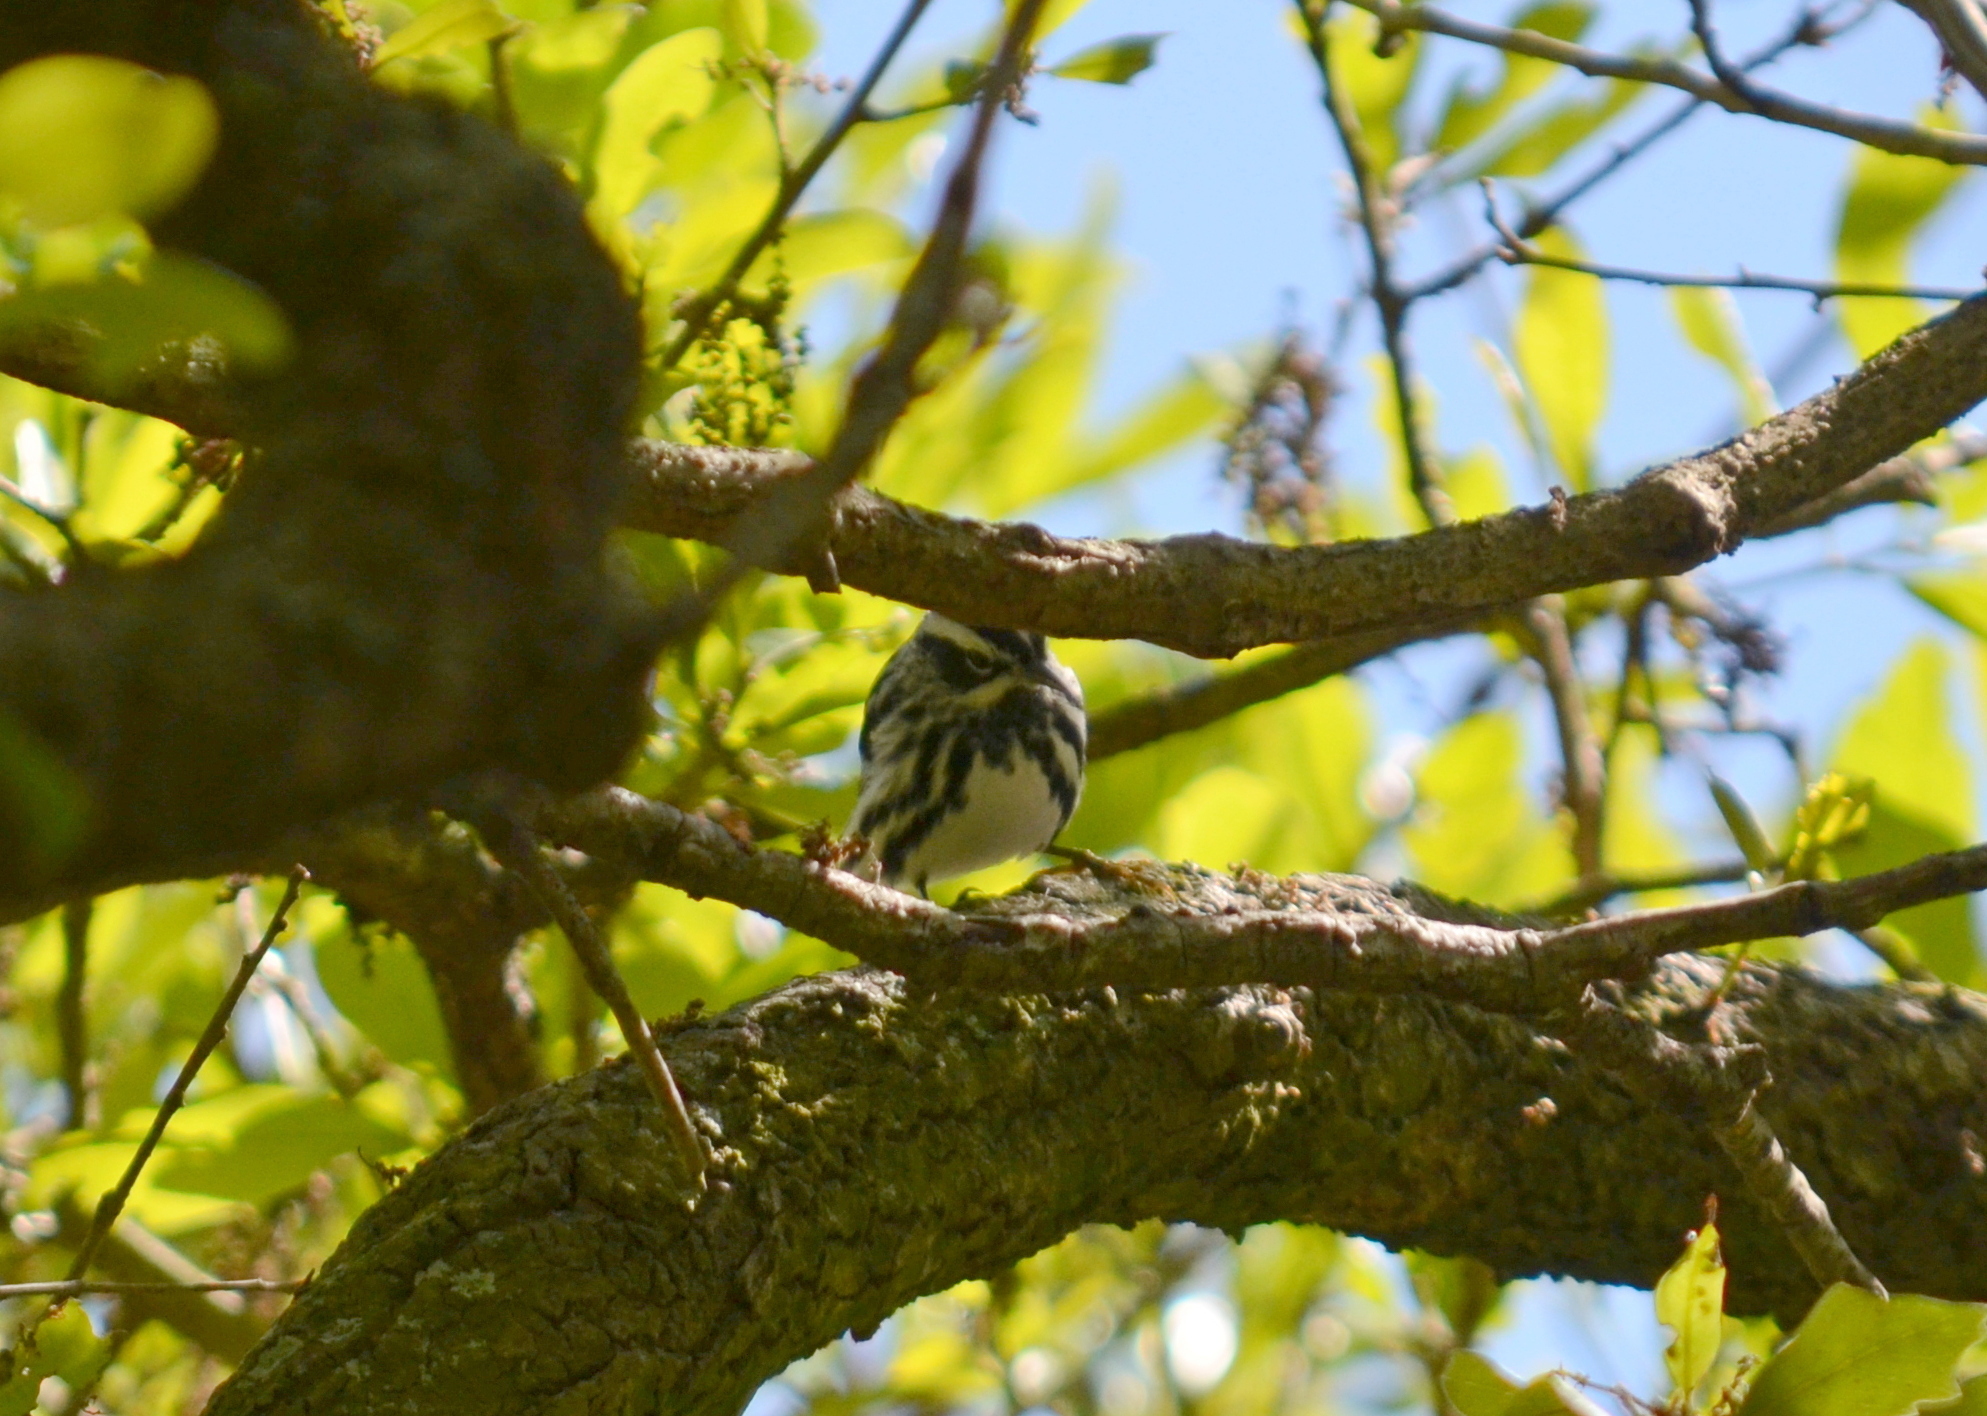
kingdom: Animalia
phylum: Chordata
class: Aves
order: Passeriformes
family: Parulidae
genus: Mniotilta
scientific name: Mniotilta varia
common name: Black-and-white warbler
